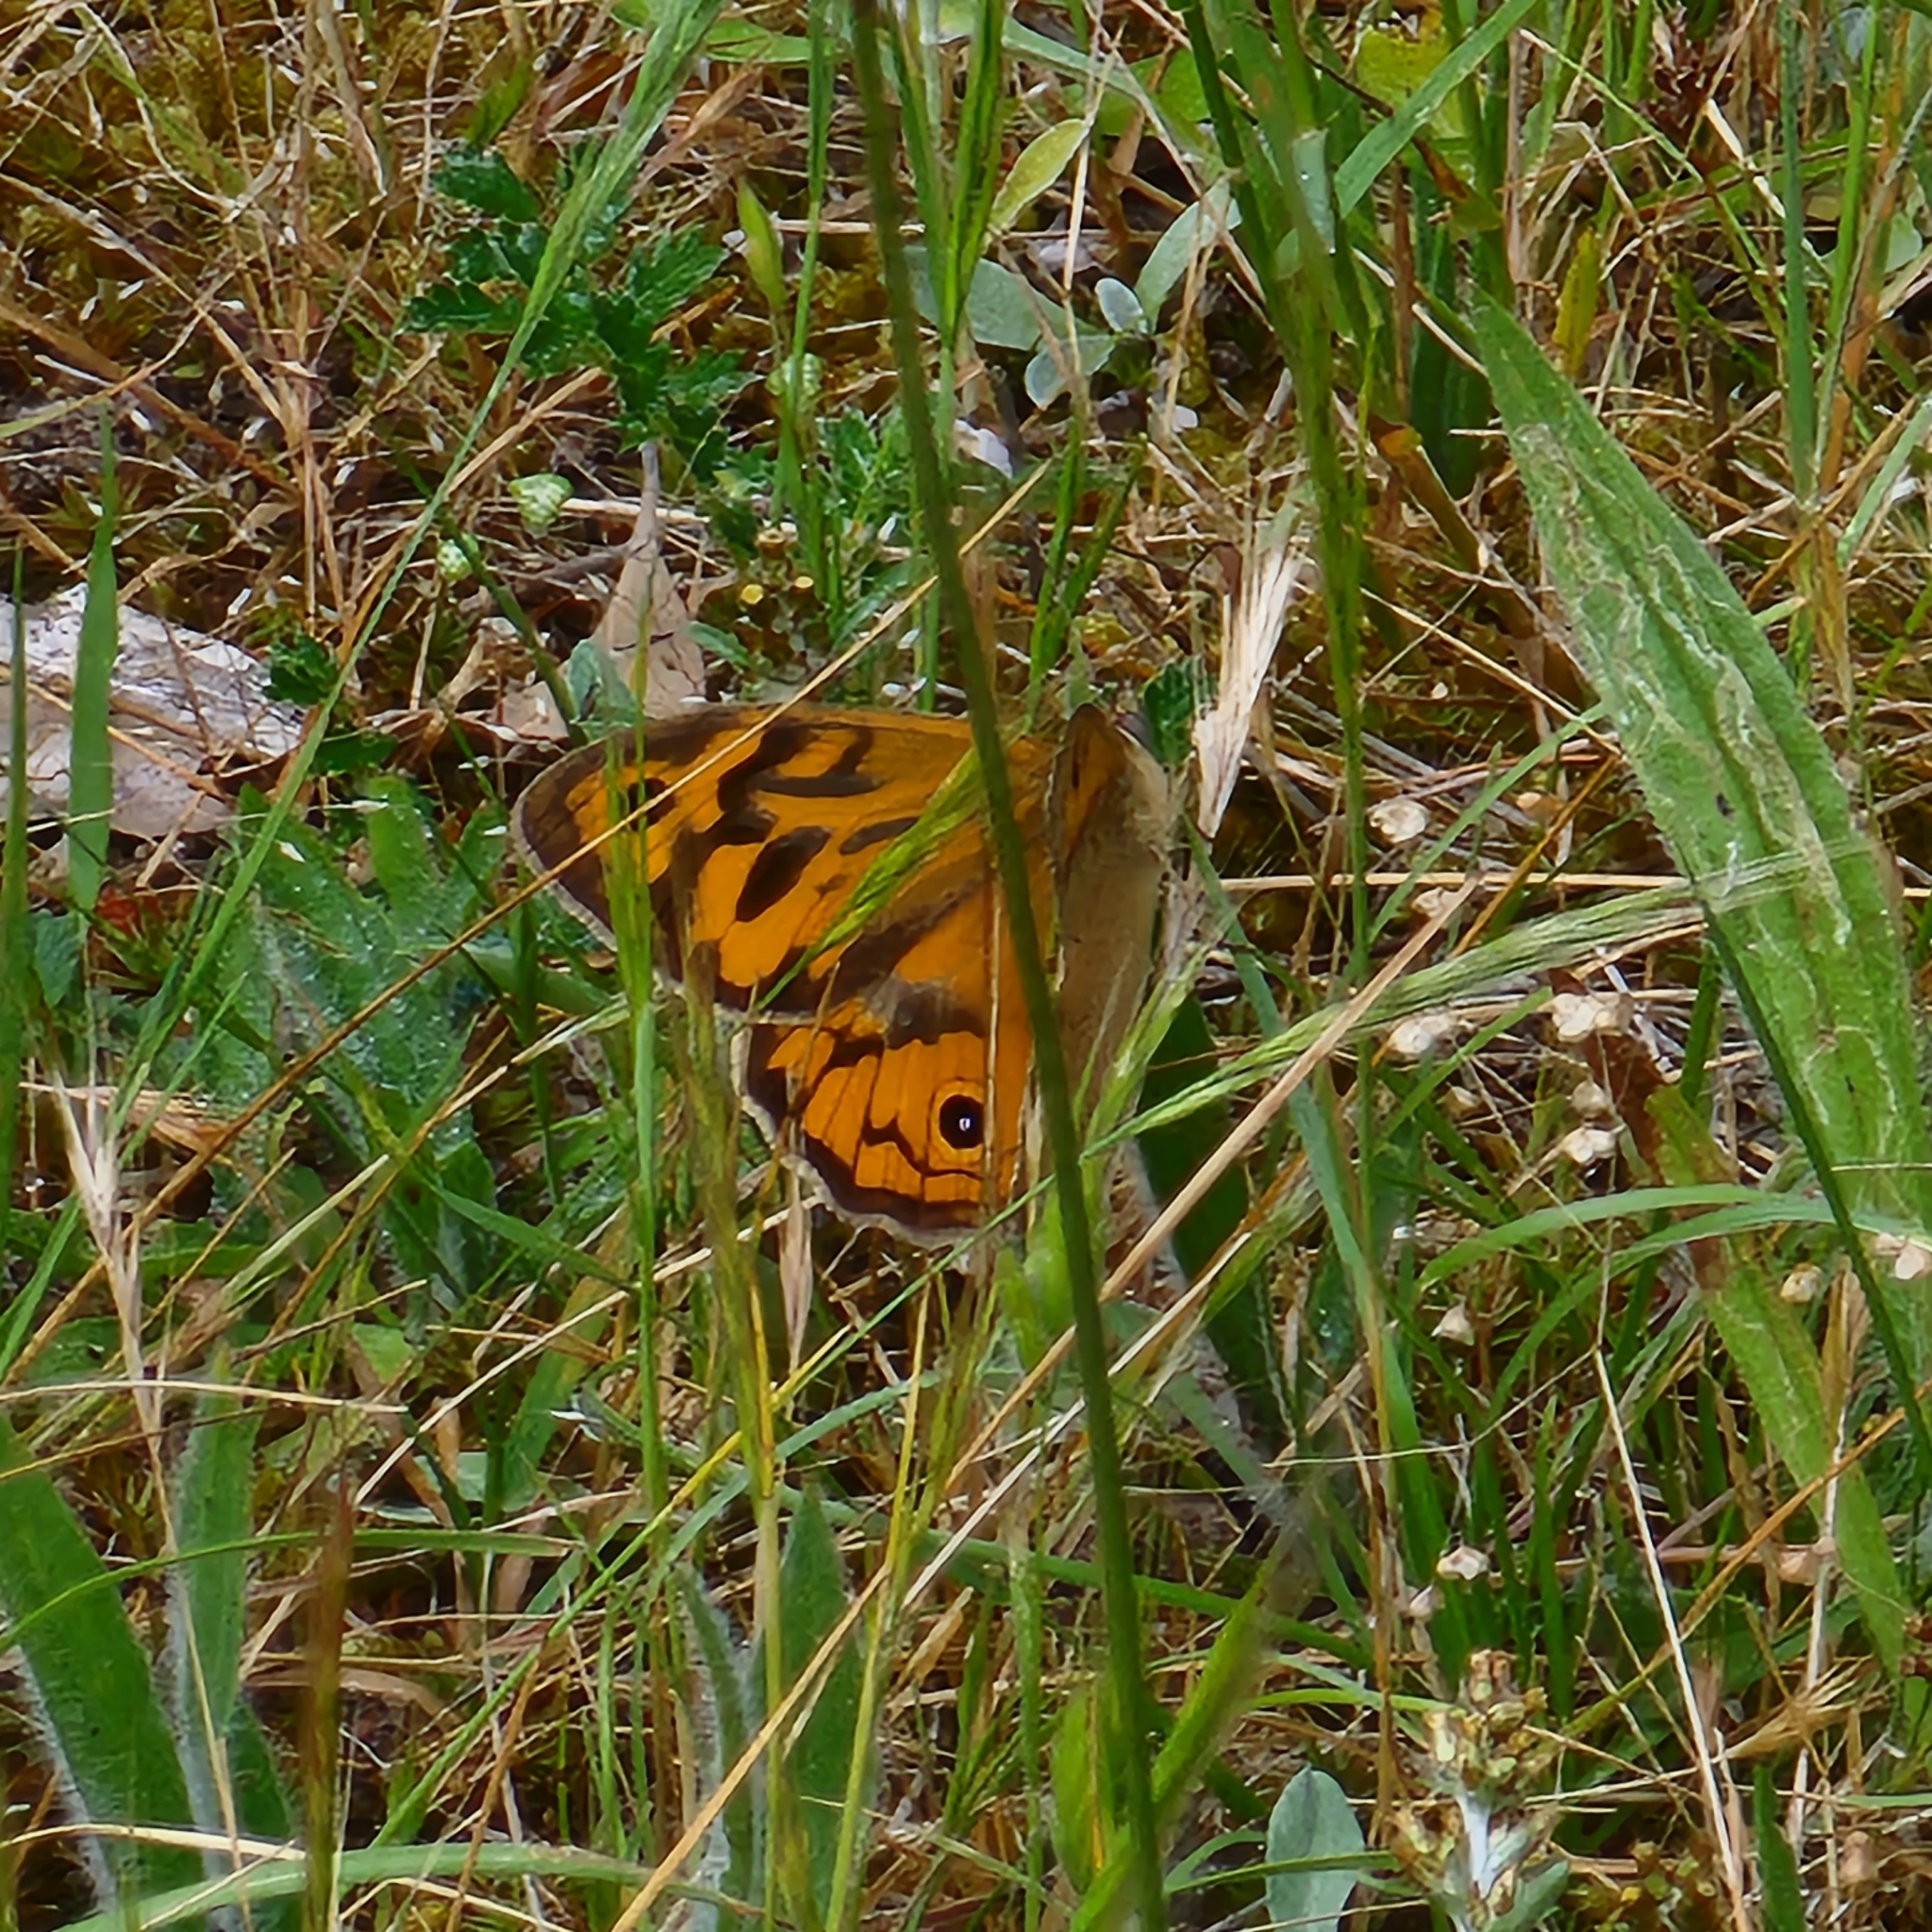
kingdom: Animalia
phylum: Arthropoda
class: Insecta
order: Lepidoptera
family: Nymphalidae
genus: Heteronympha
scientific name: Heteronympha merope
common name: Common brown
